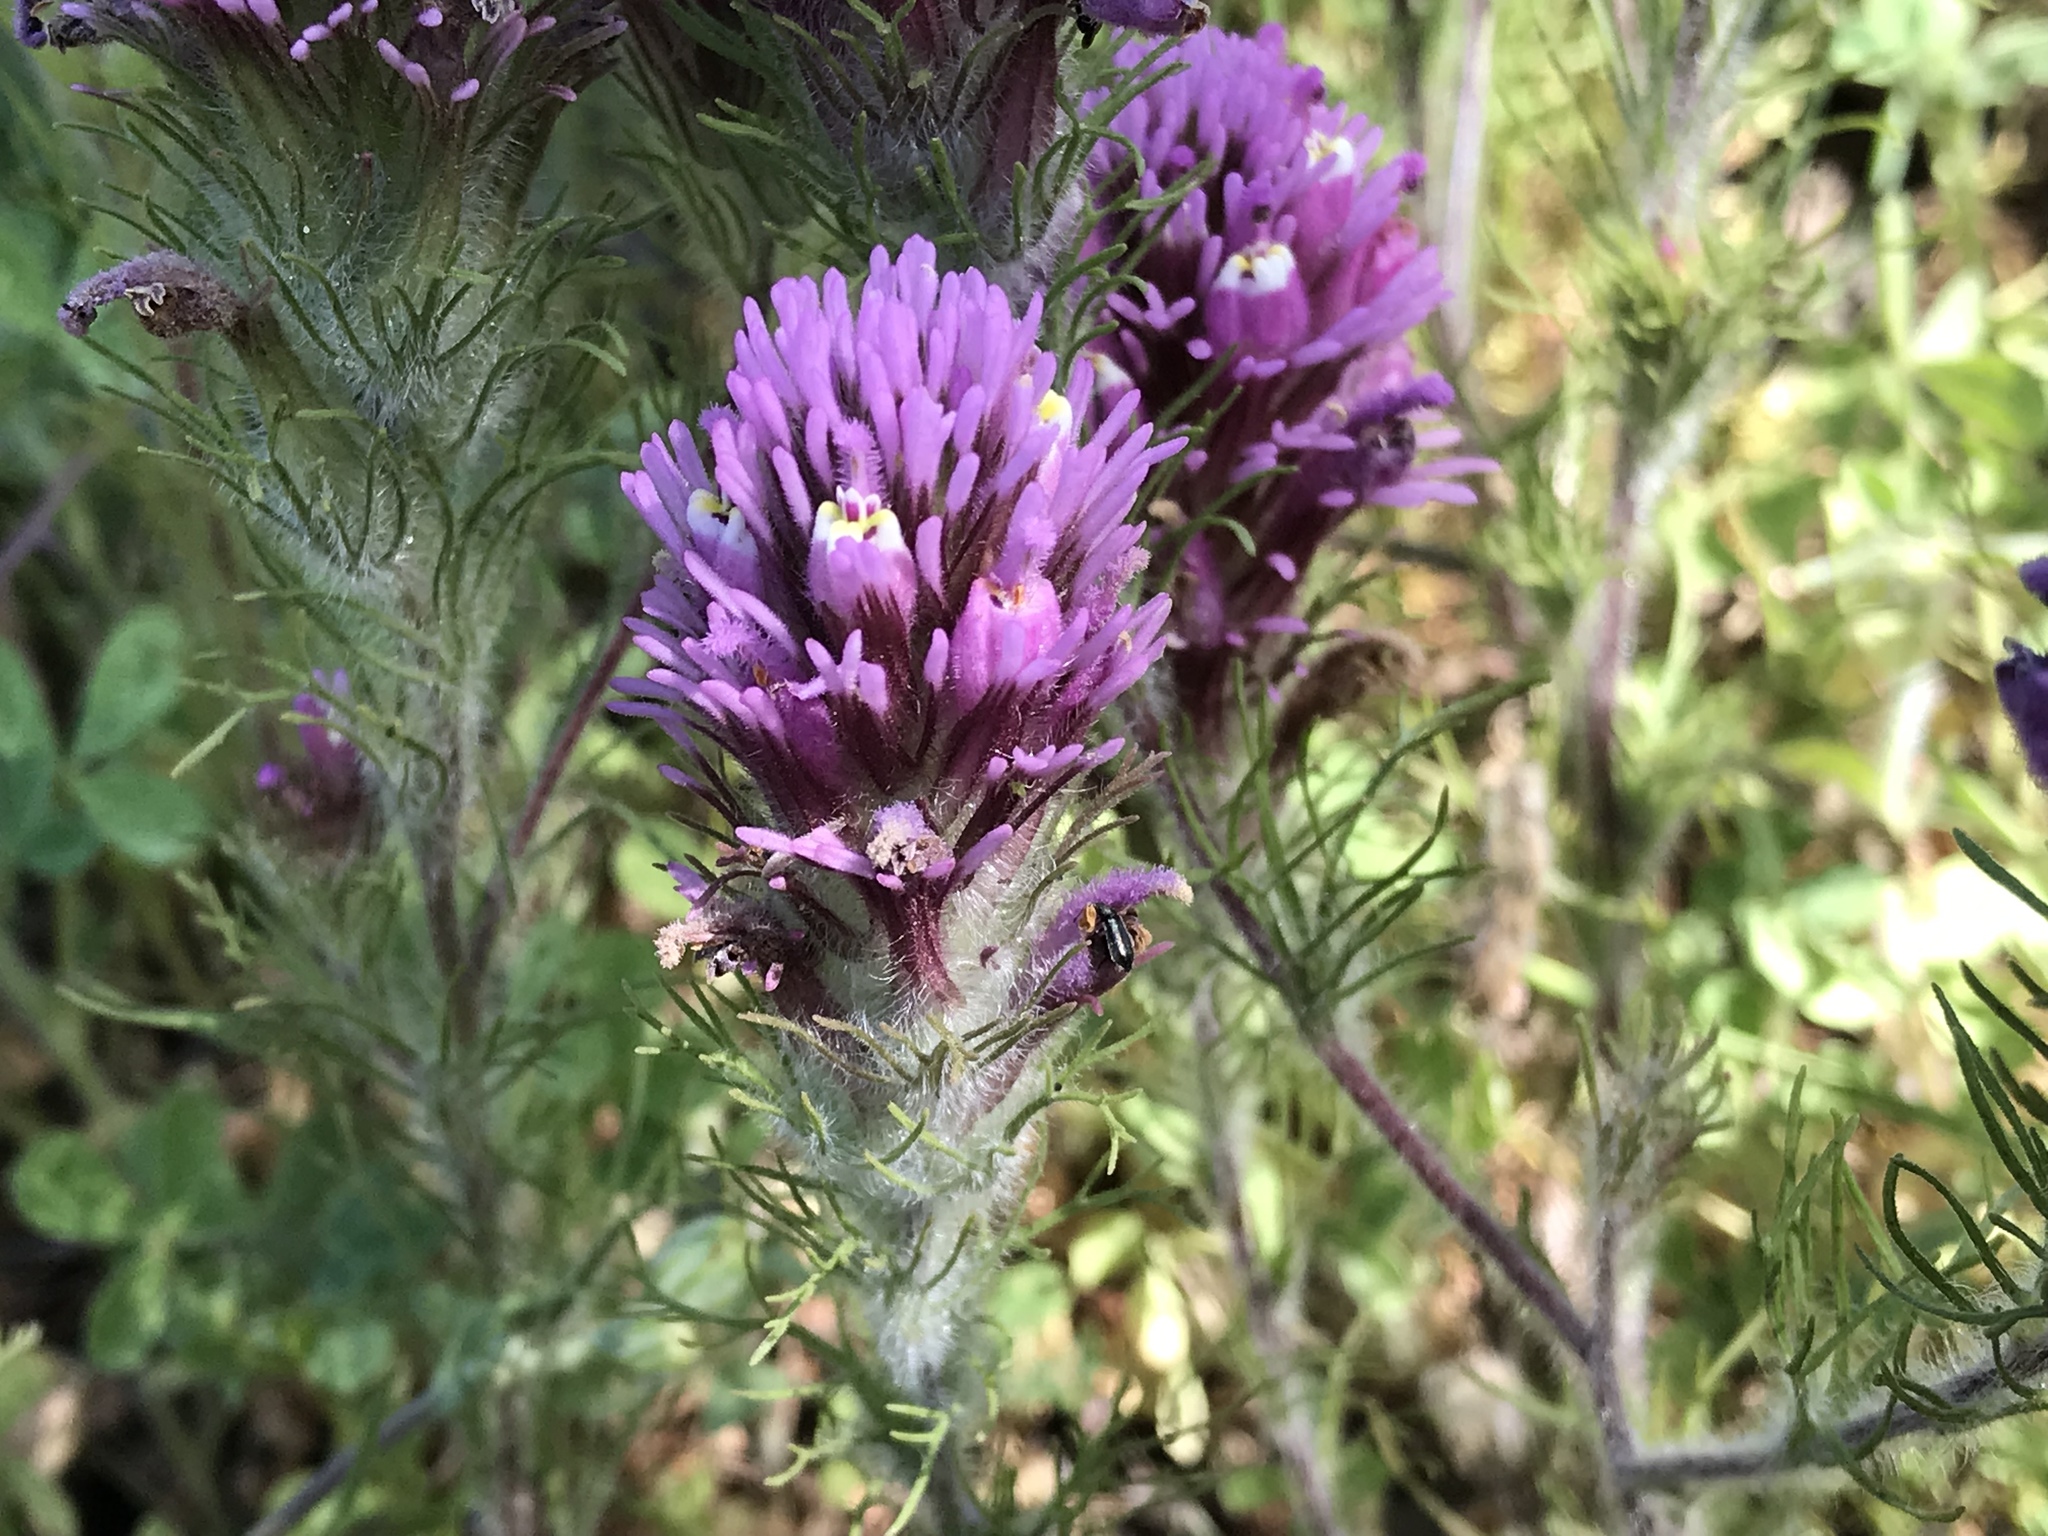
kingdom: Plantae
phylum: Tracheophyta
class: Magnoliopsida
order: Lamiales
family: Orobanchaceae
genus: Castilleja
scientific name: Castilleja exserta
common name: Purple owl-clover
